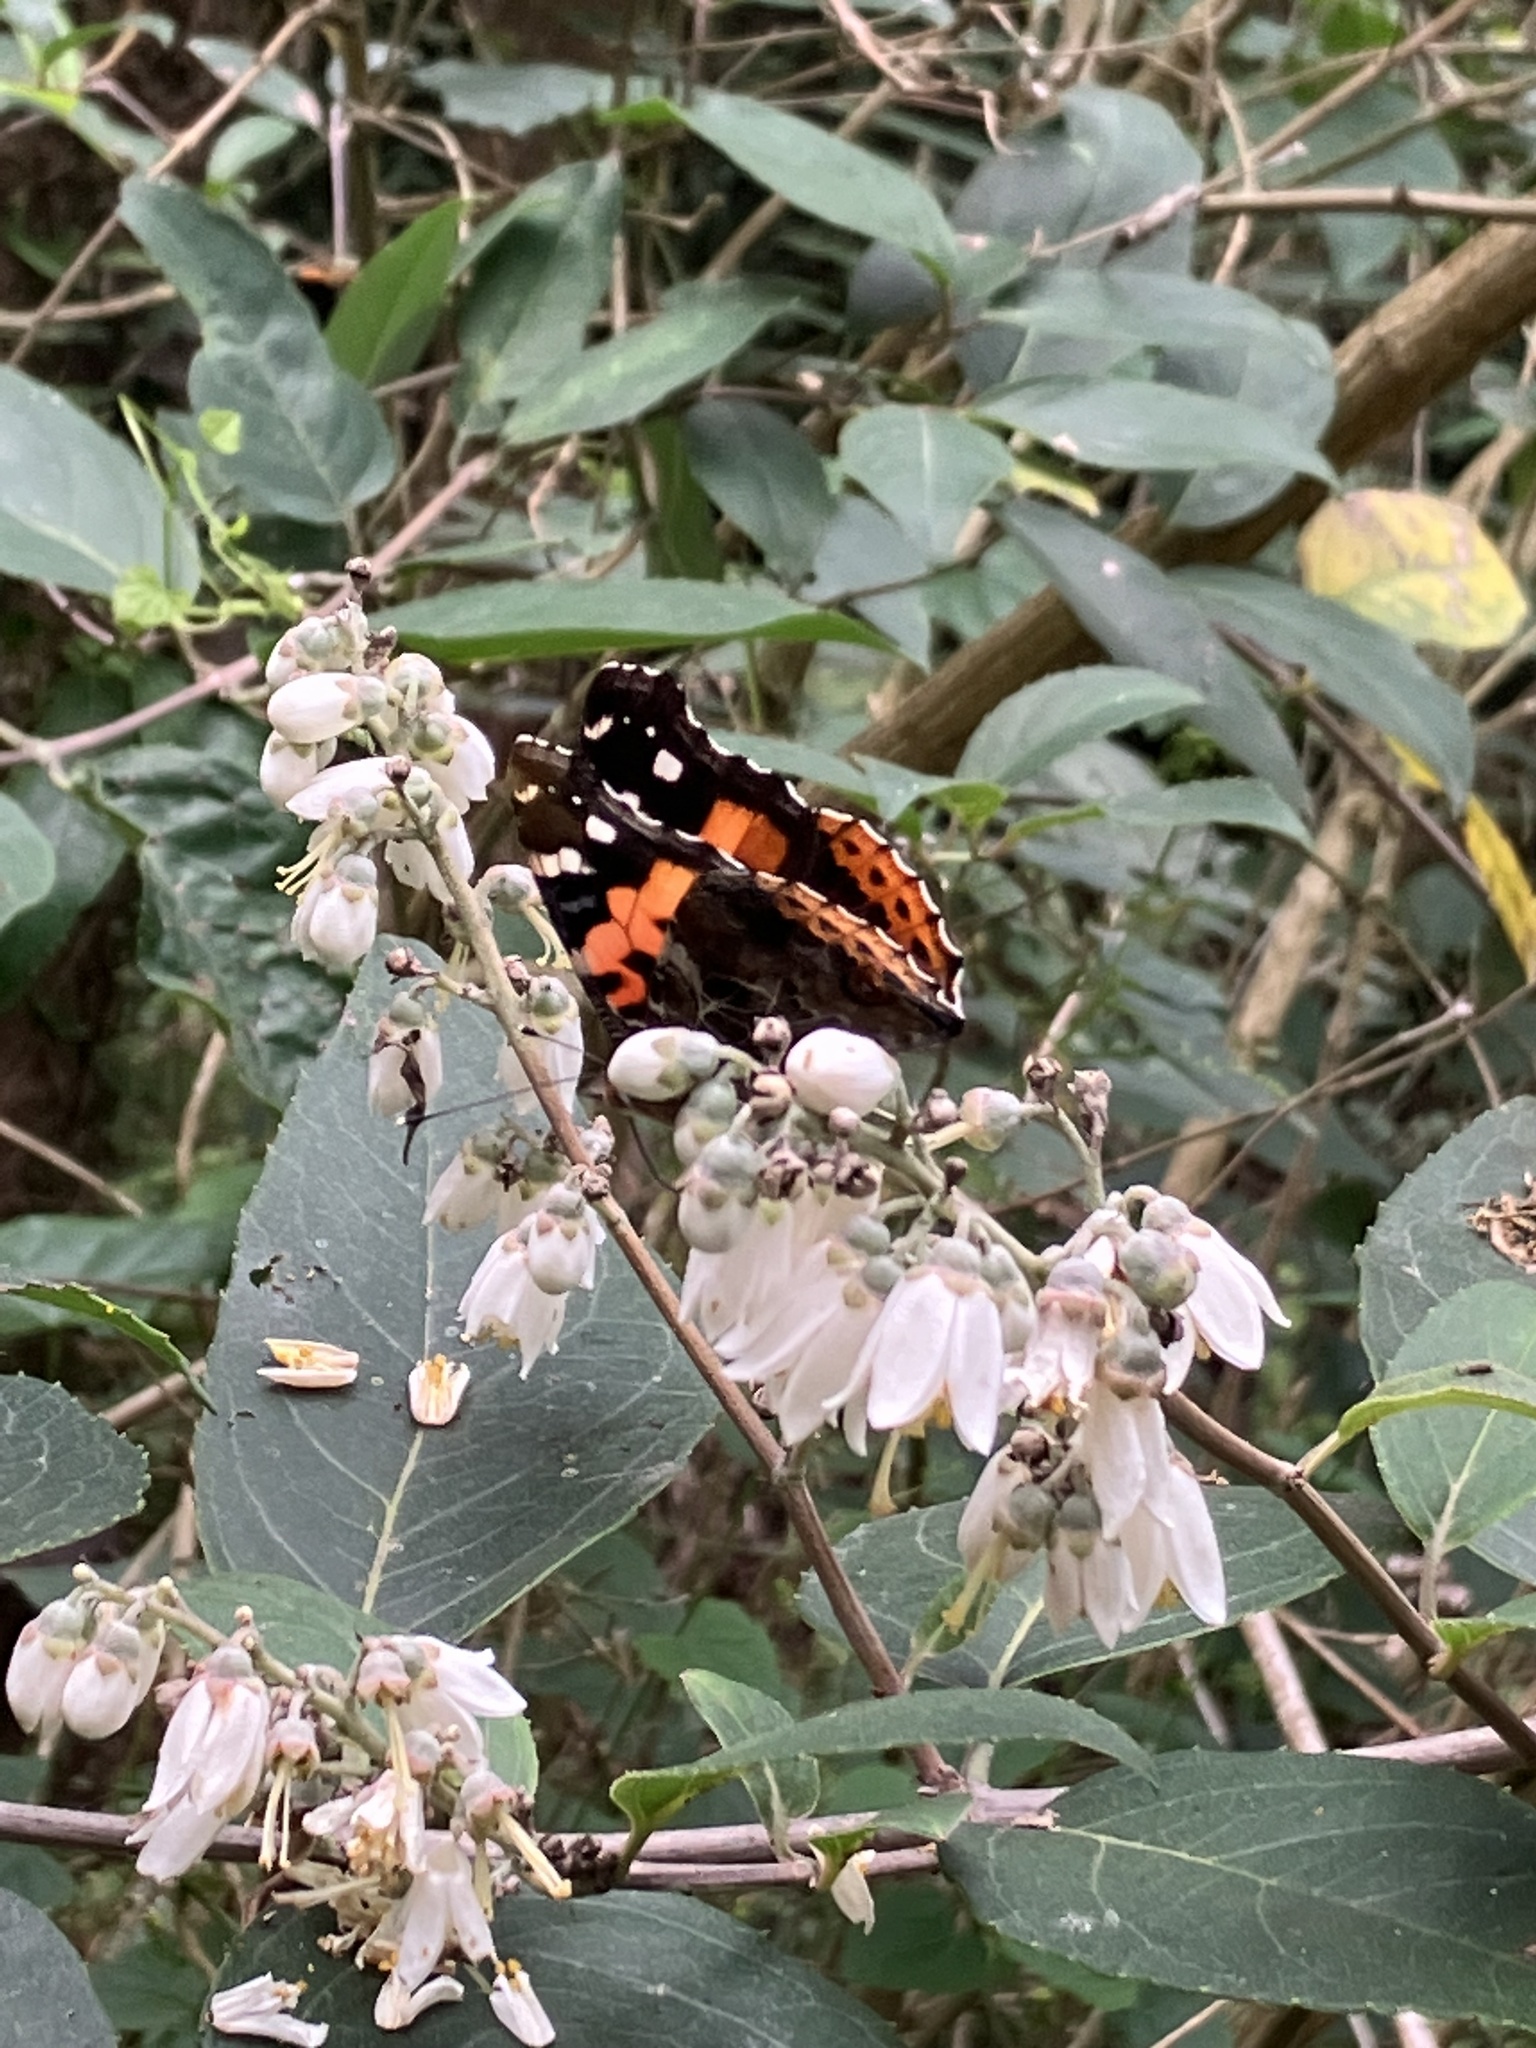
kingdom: Animalia
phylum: Arthropoda
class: Insecta
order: Lepidoptera
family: Nymphalidae
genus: Vanessa
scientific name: Vanessa indica
